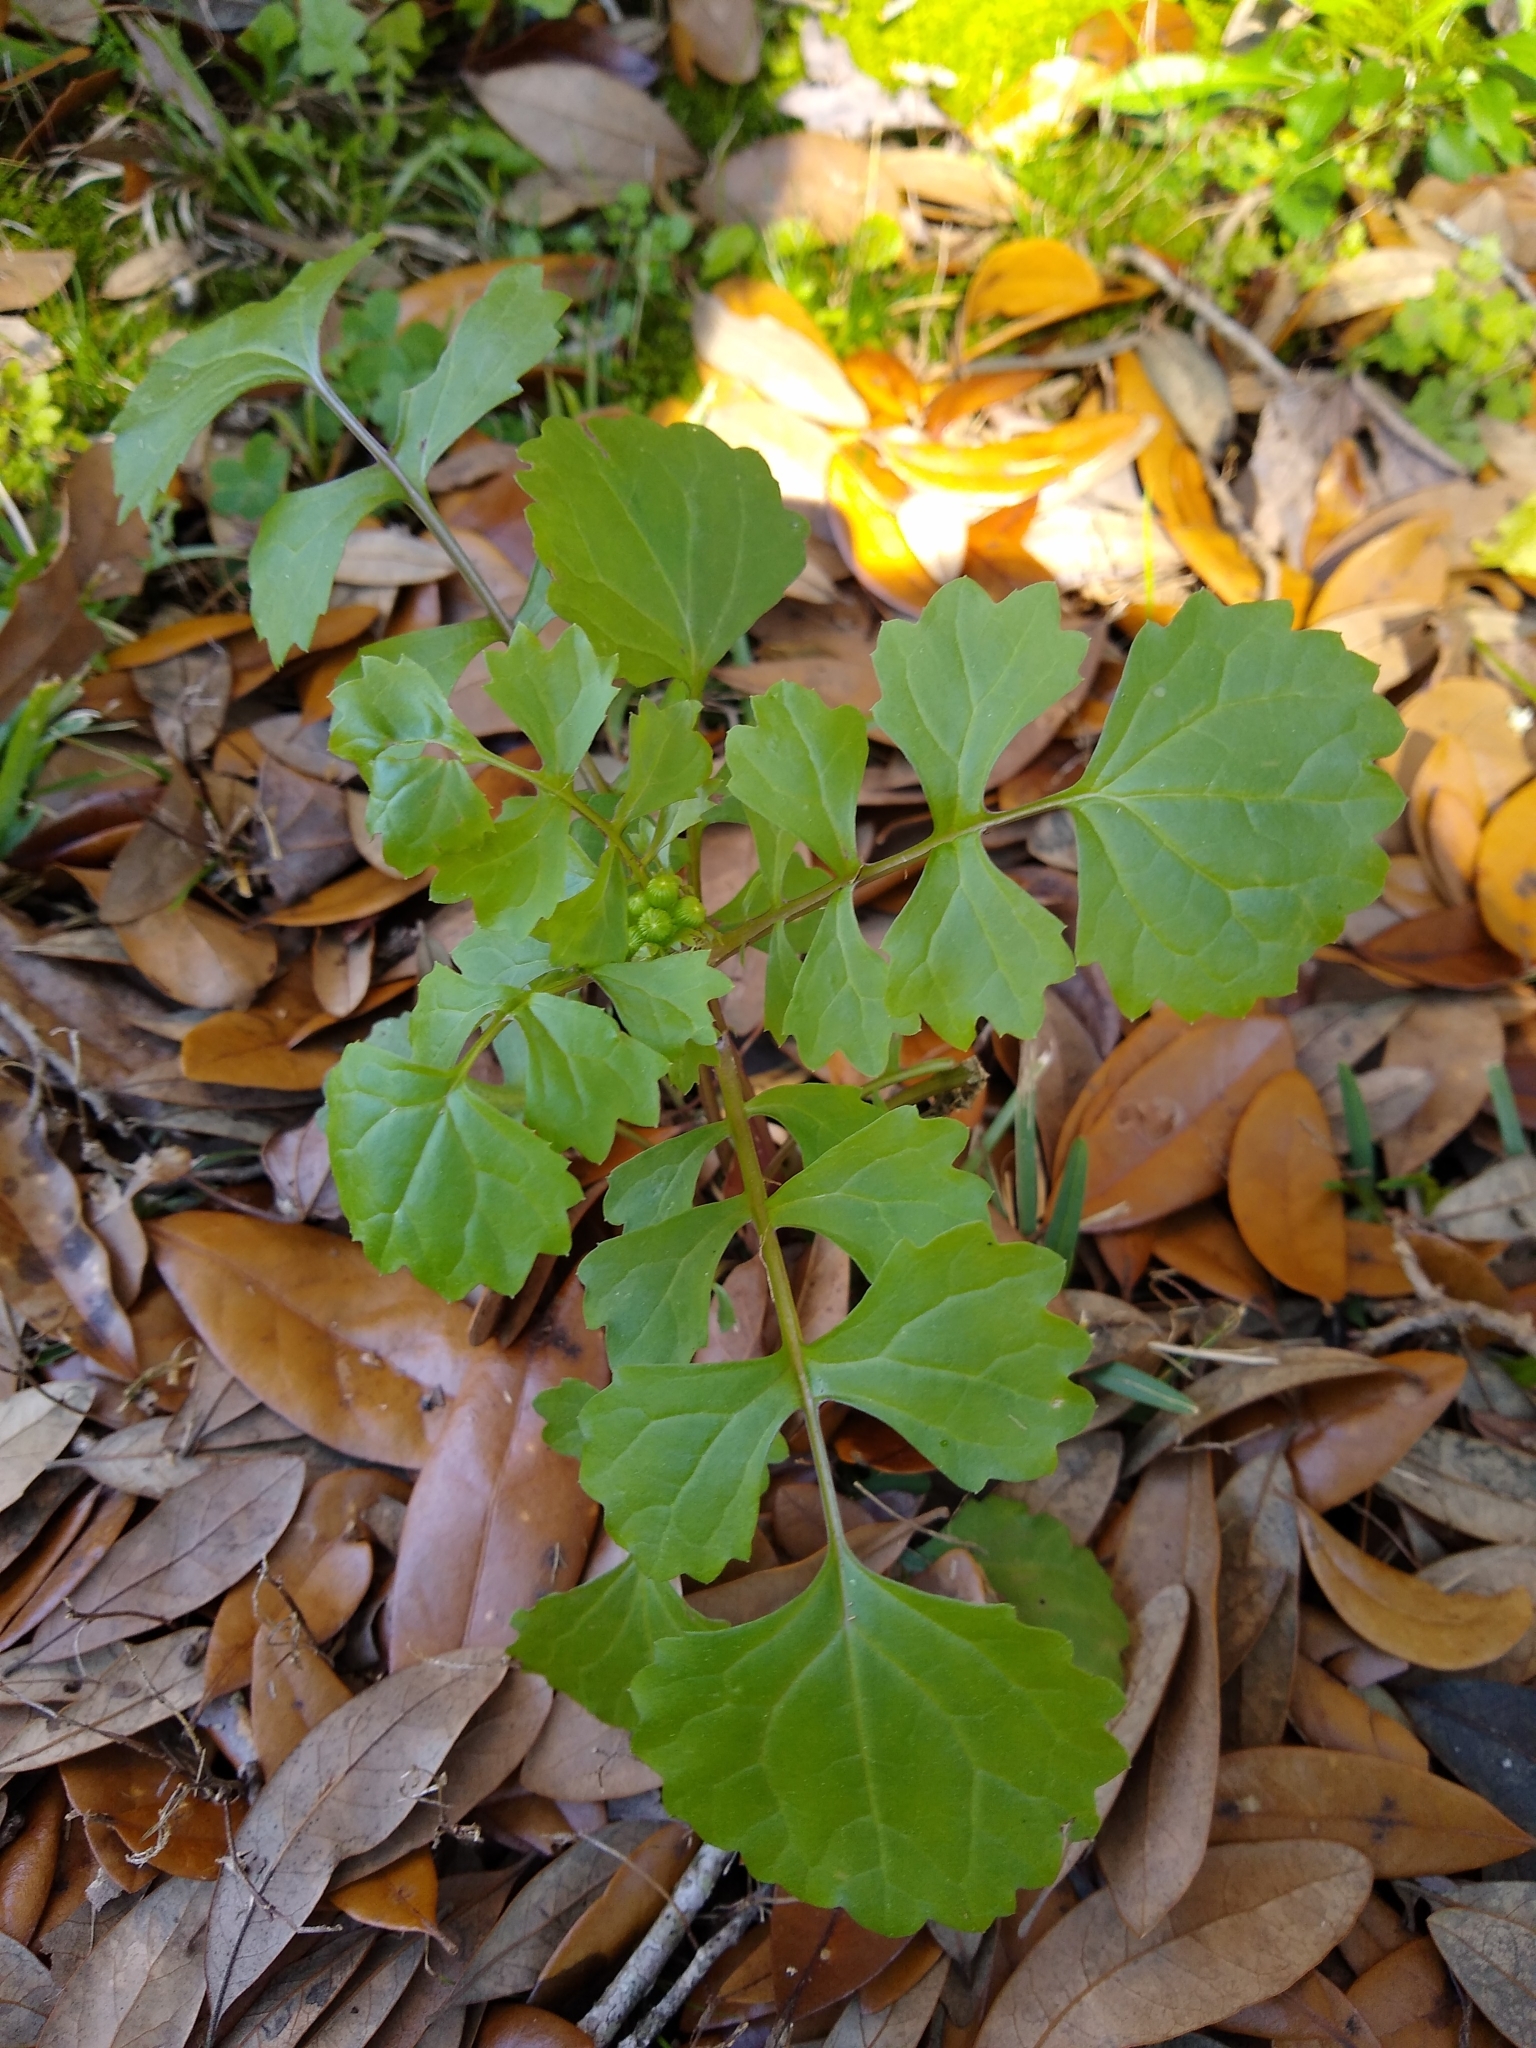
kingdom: Plantae
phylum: Tracheophyta
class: Magnoliopsida
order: Asterales
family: Asteraceae
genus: Packera
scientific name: Packera glabella
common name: Butterweed
